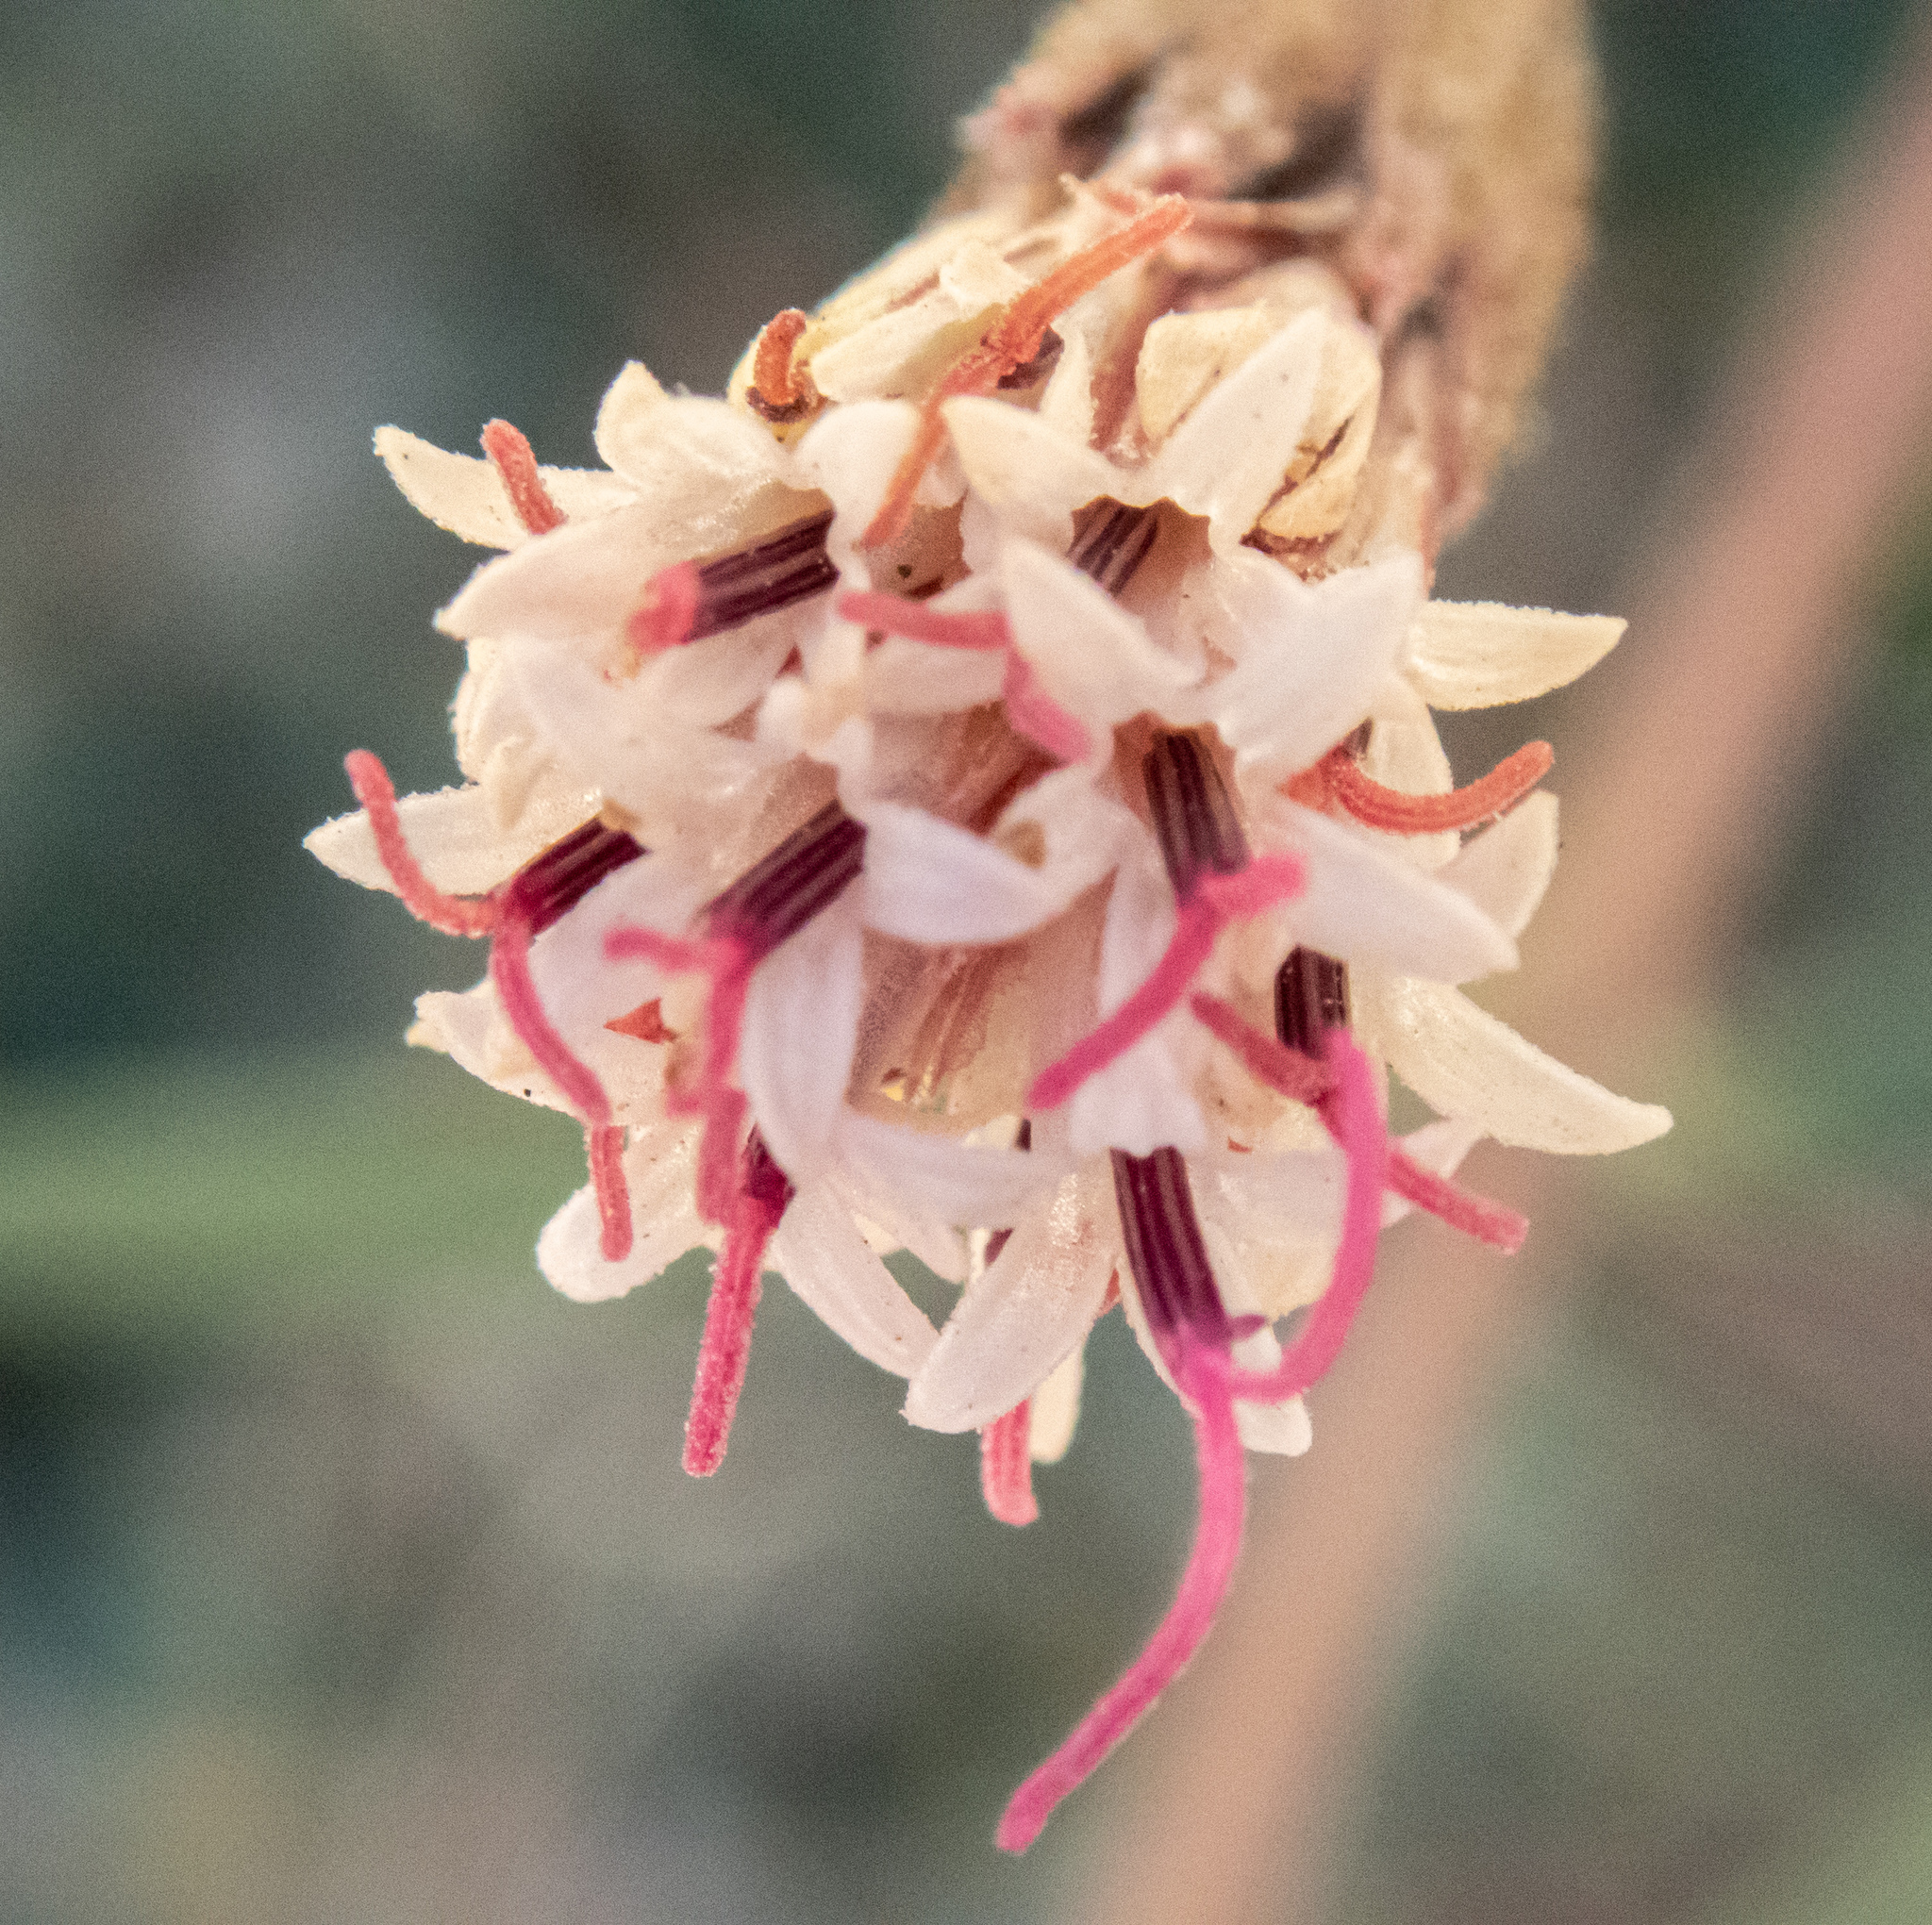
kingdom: Plantae
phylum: Tracheophyta
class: Magnoliopsida
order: Asterales
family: Asteraceae
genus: Palafoxia
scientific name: Palafoxia arida
